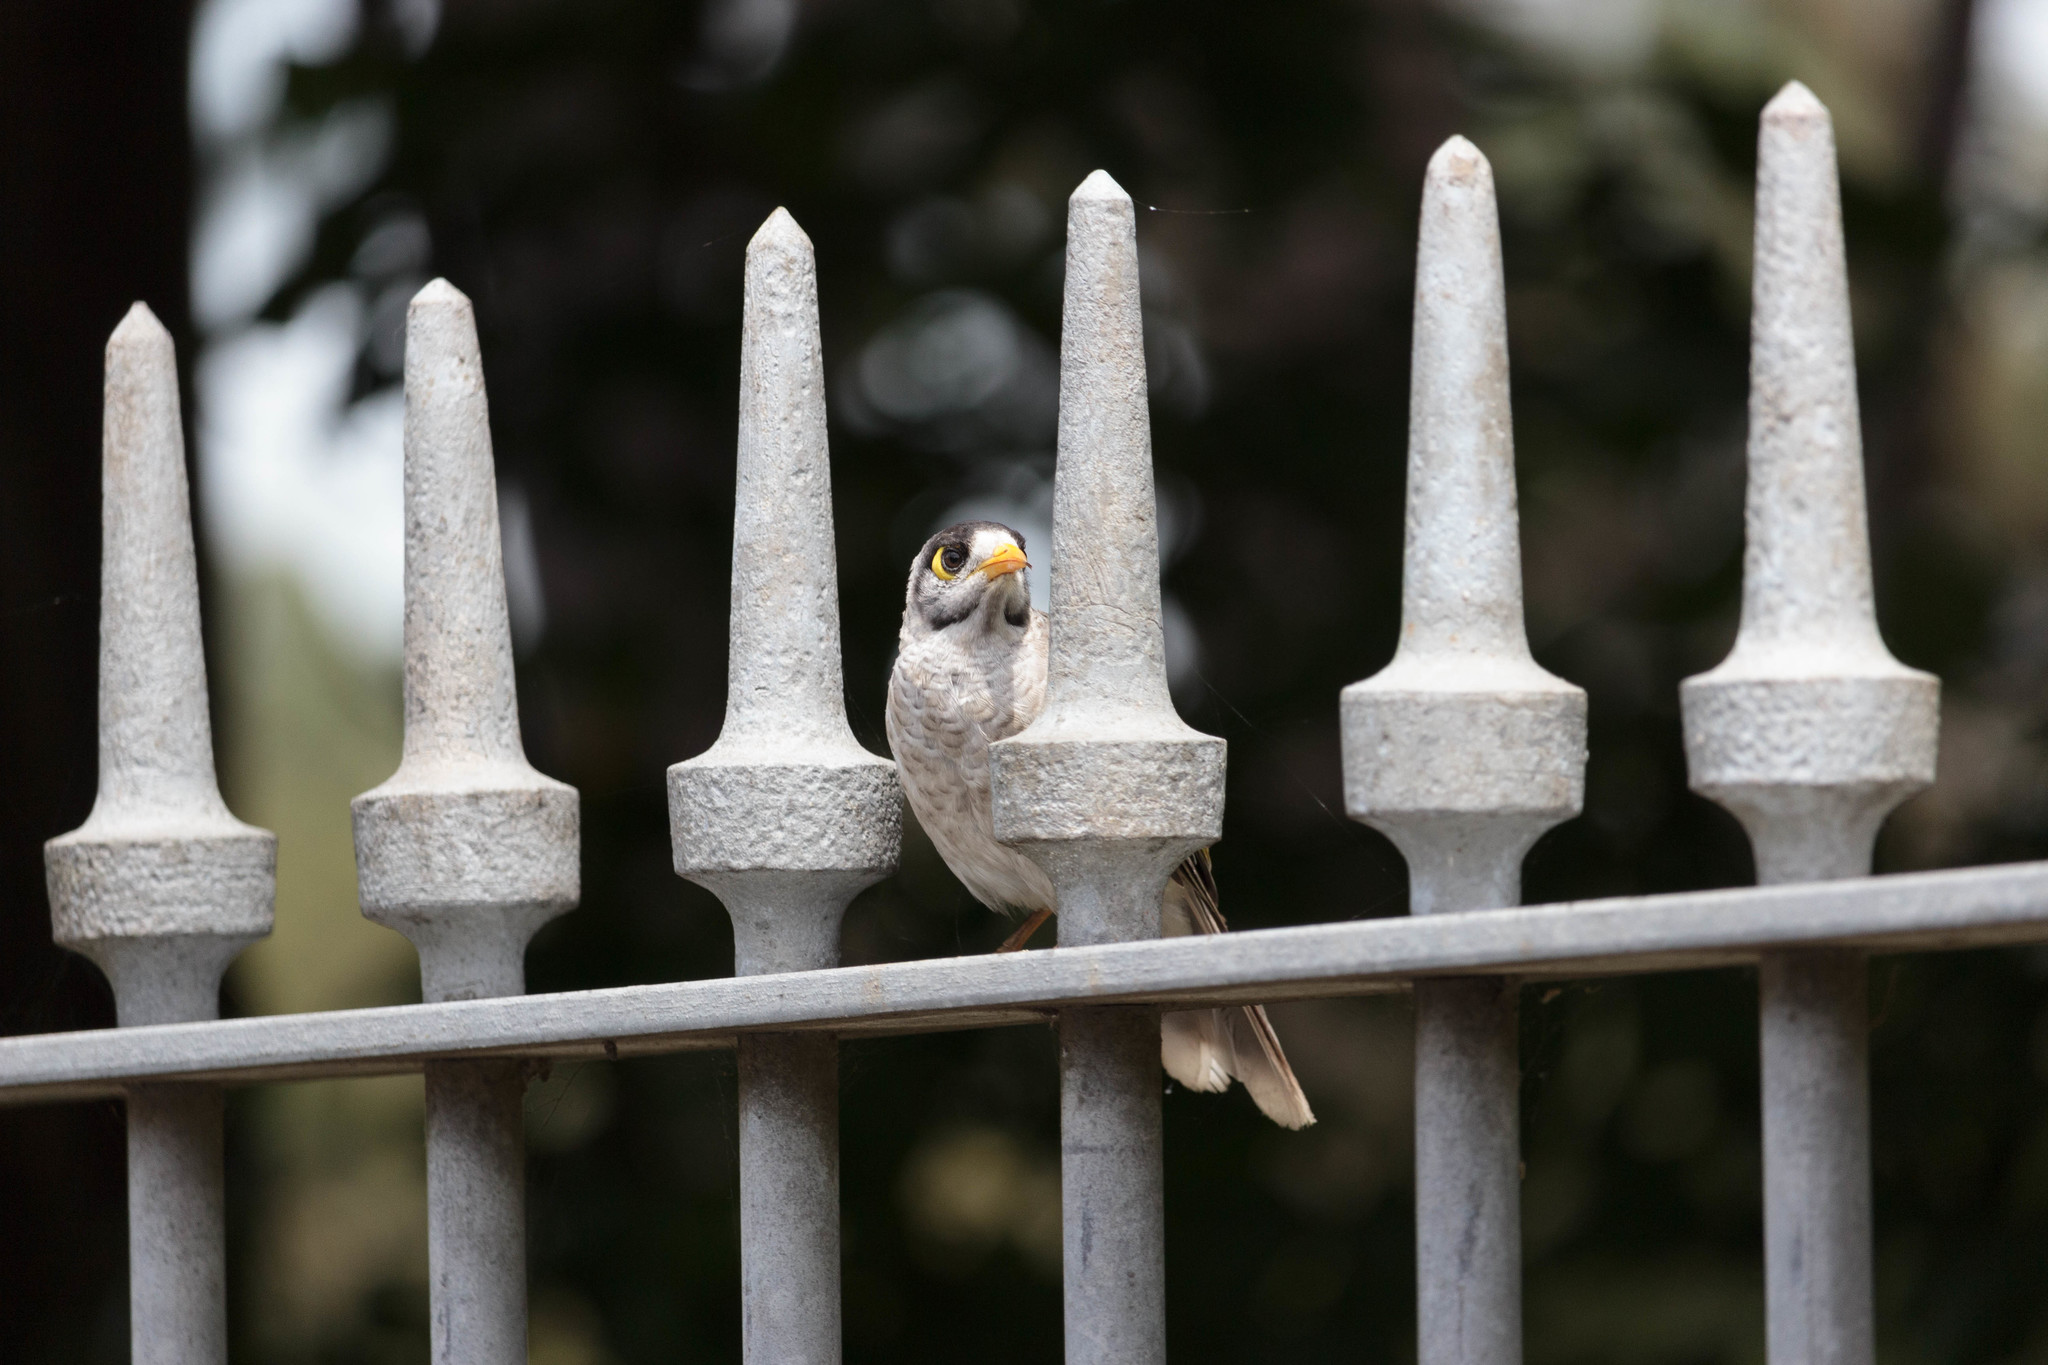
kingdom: Animalia
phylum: Chordata
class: Aves
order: Passeriformes
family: Meliphagidae
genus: Manorina
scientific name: Manorina melanocephala
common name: Noisy miner
